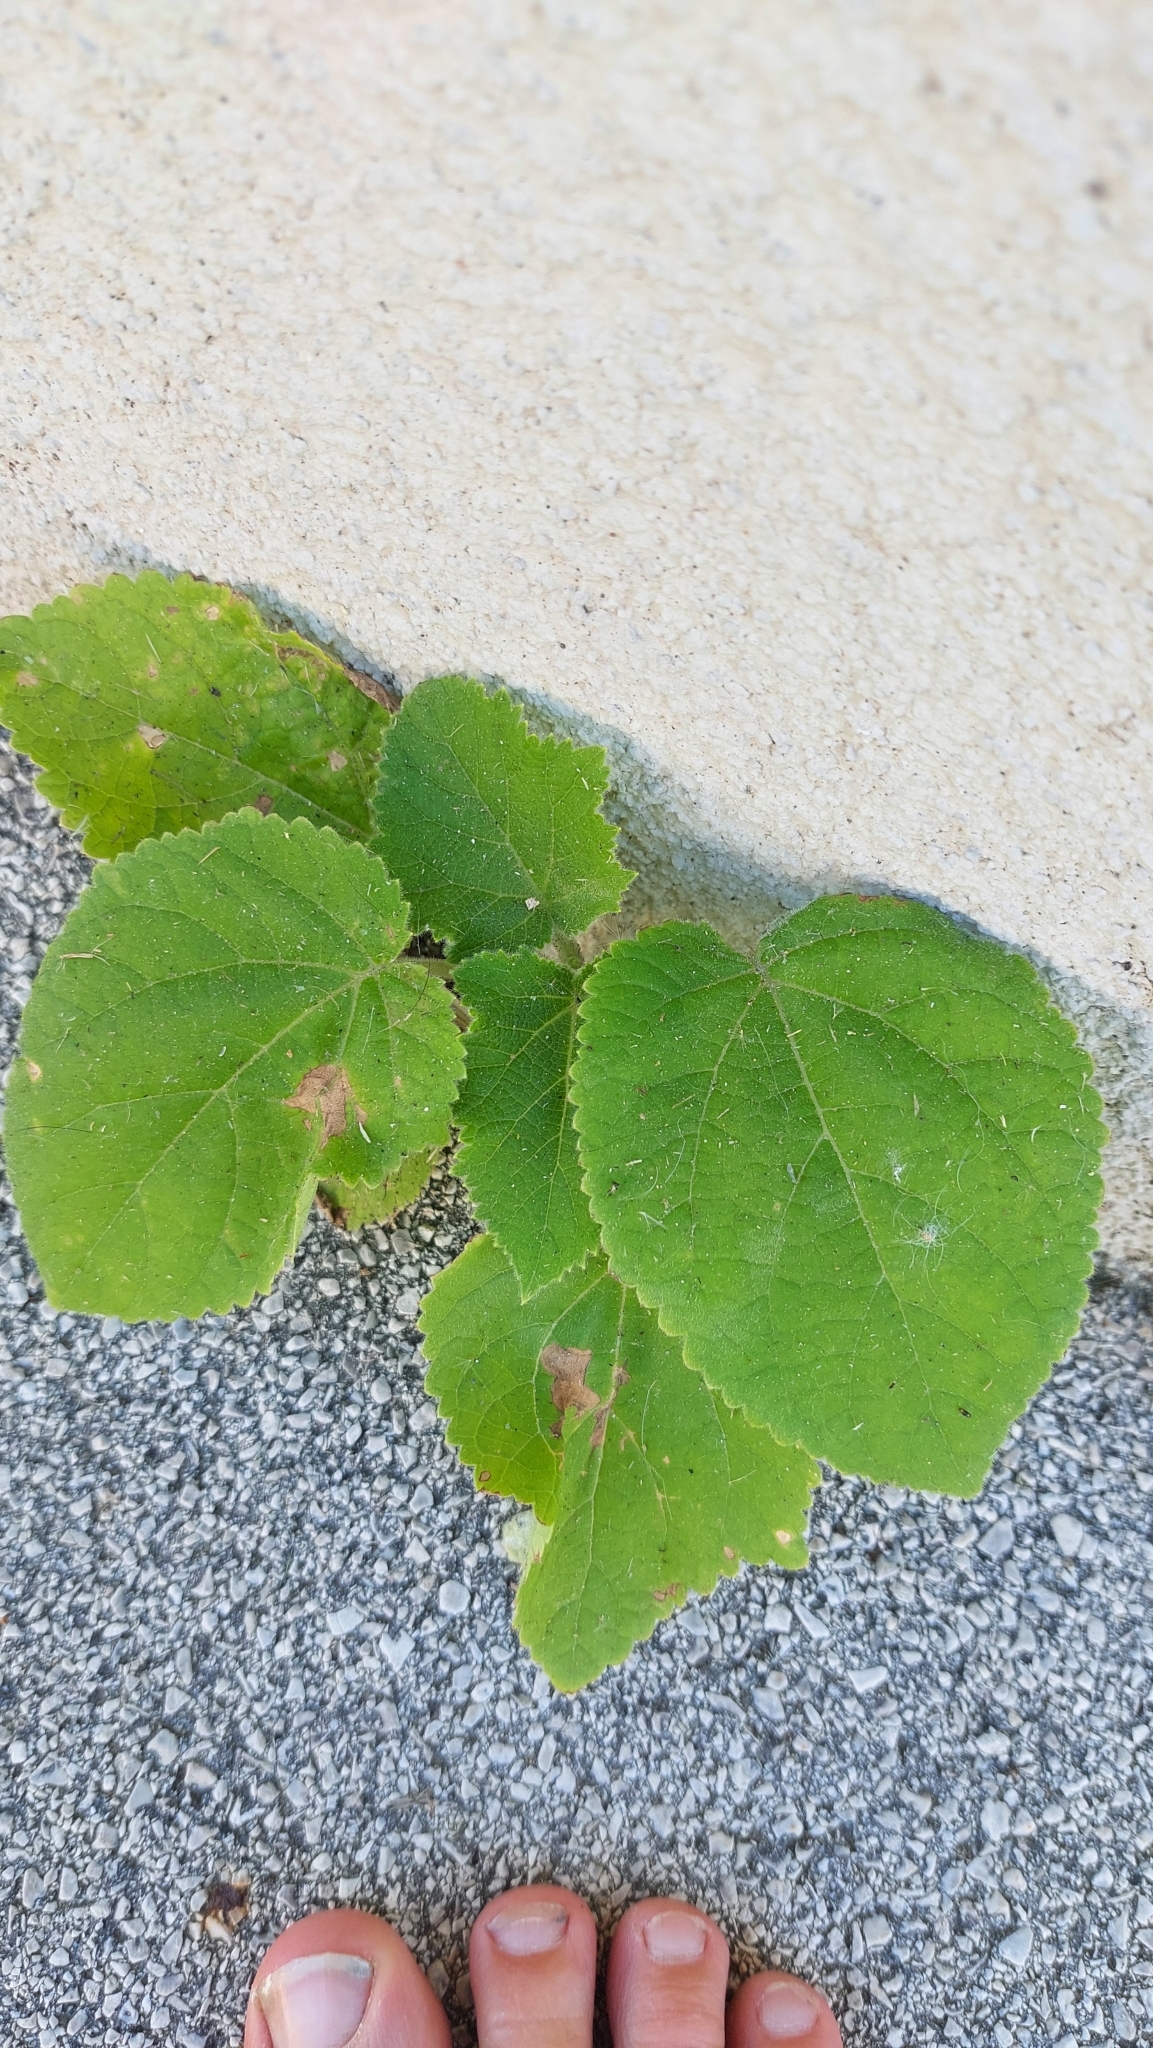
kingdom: Plantae
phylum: Tracheophyta
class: Magnoliopsida
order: Lamiales
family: Paulowniaceae
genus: Paulownia
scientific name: Paulownia tomentosa
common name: Foxglove-tree
